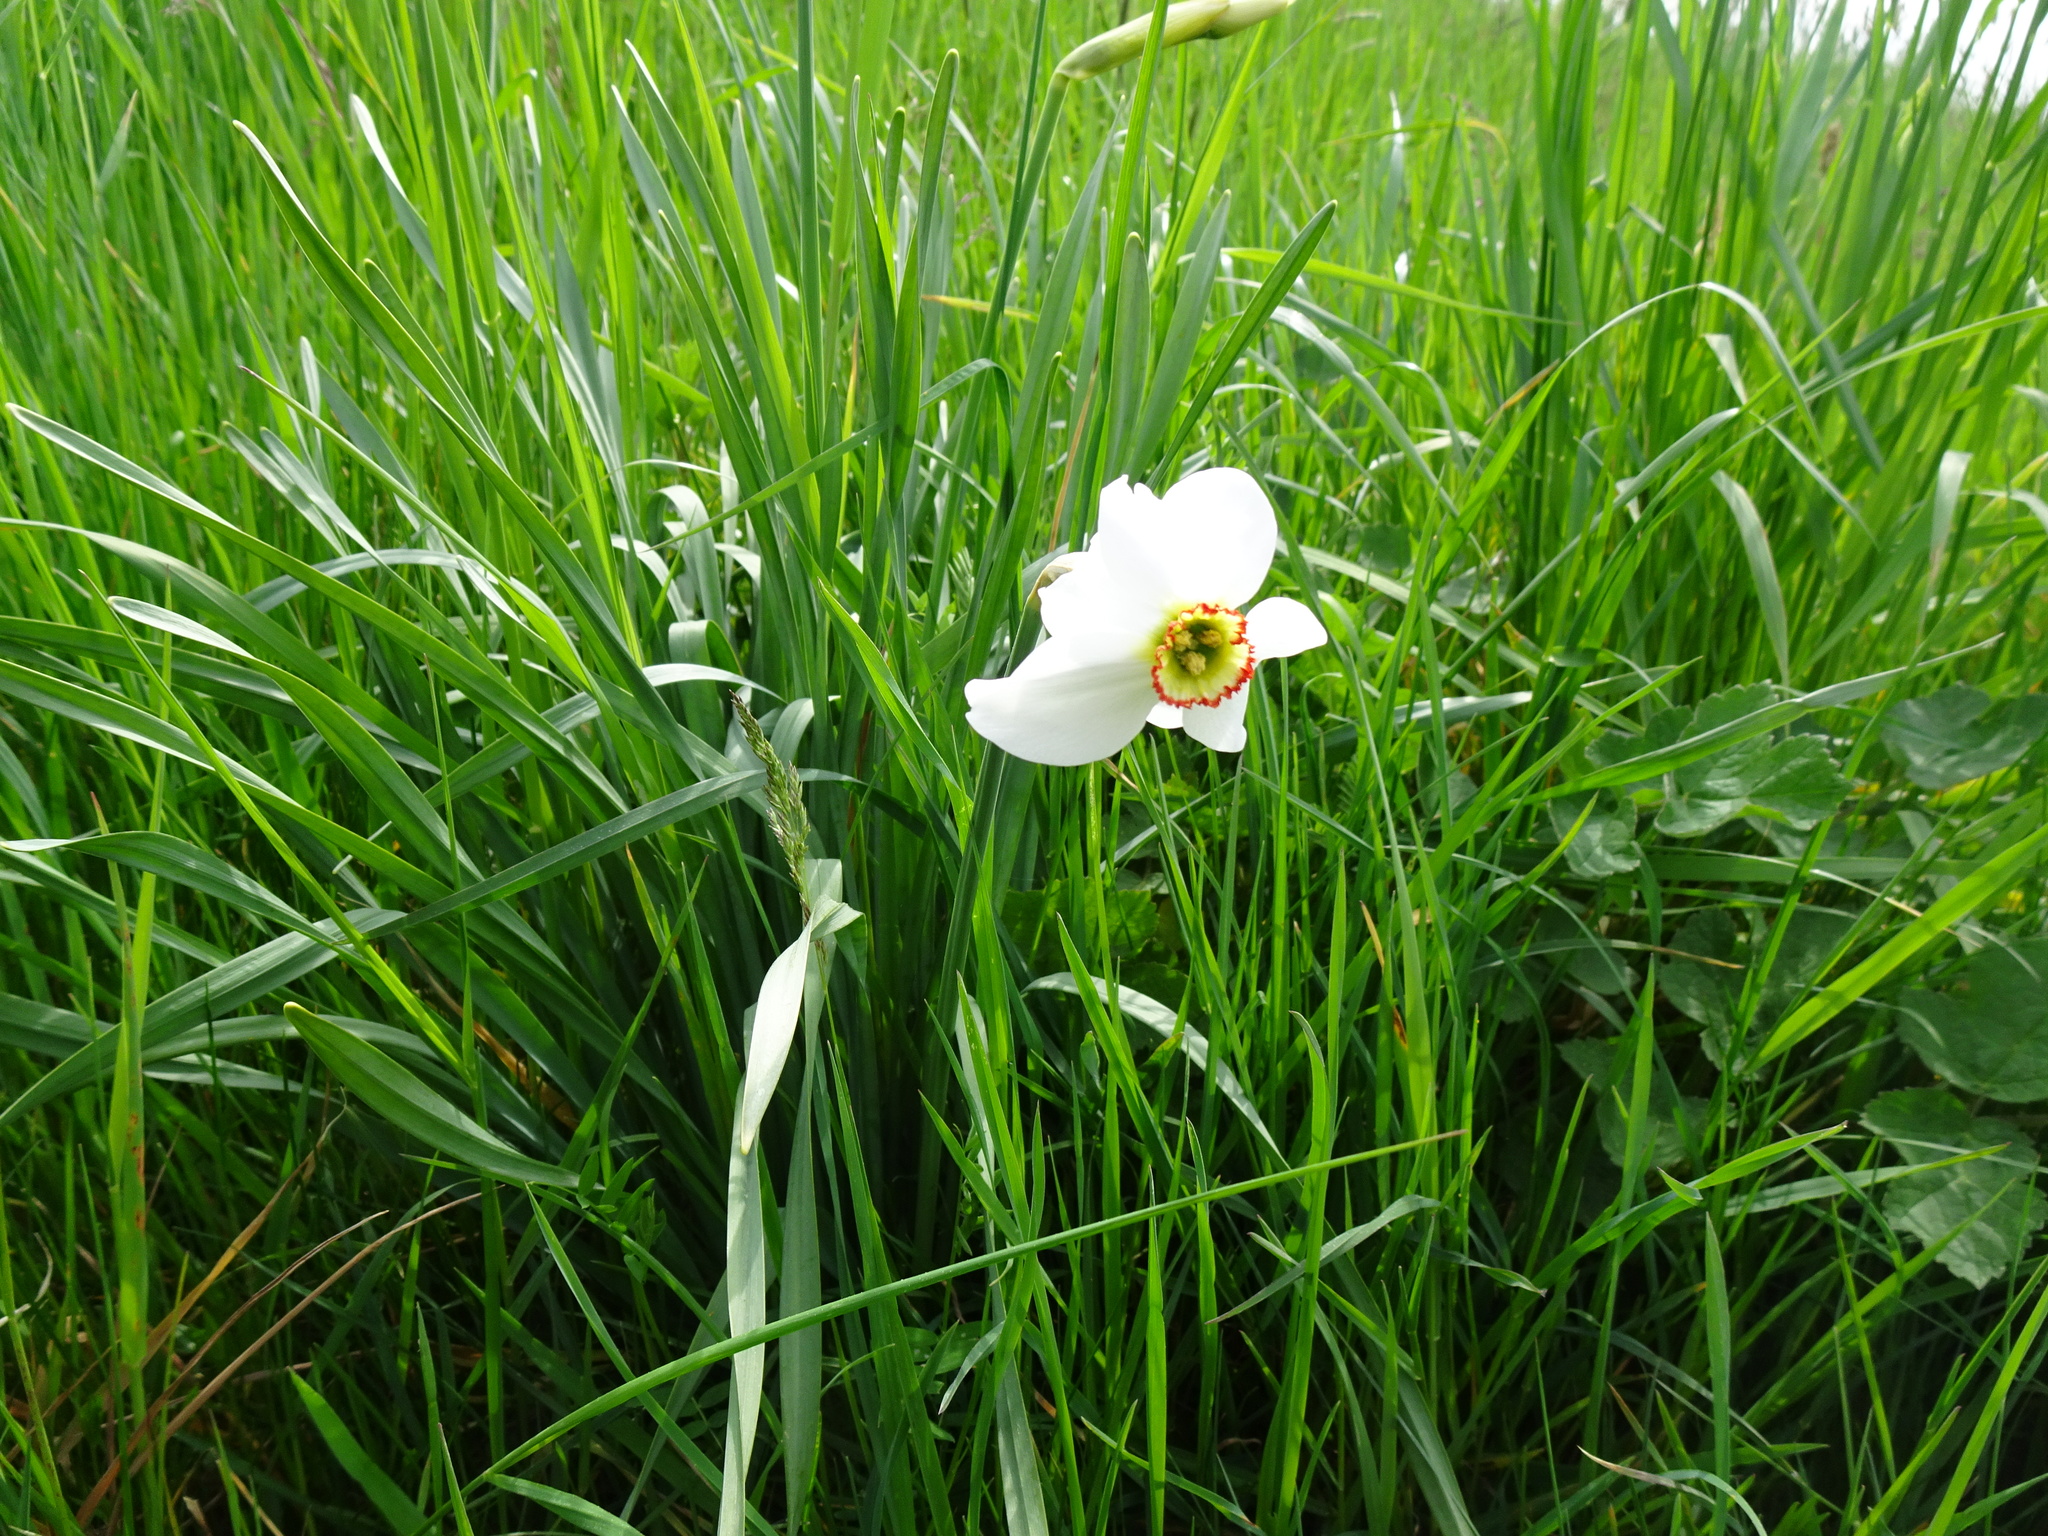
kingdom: Plantae
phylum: Tracheophyta
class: Liliopsida
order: Asparagales
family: Amaryllidaceae
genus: Narcissus
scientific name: Narcissus poeticus
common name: Pheasant's-eye daffodil
